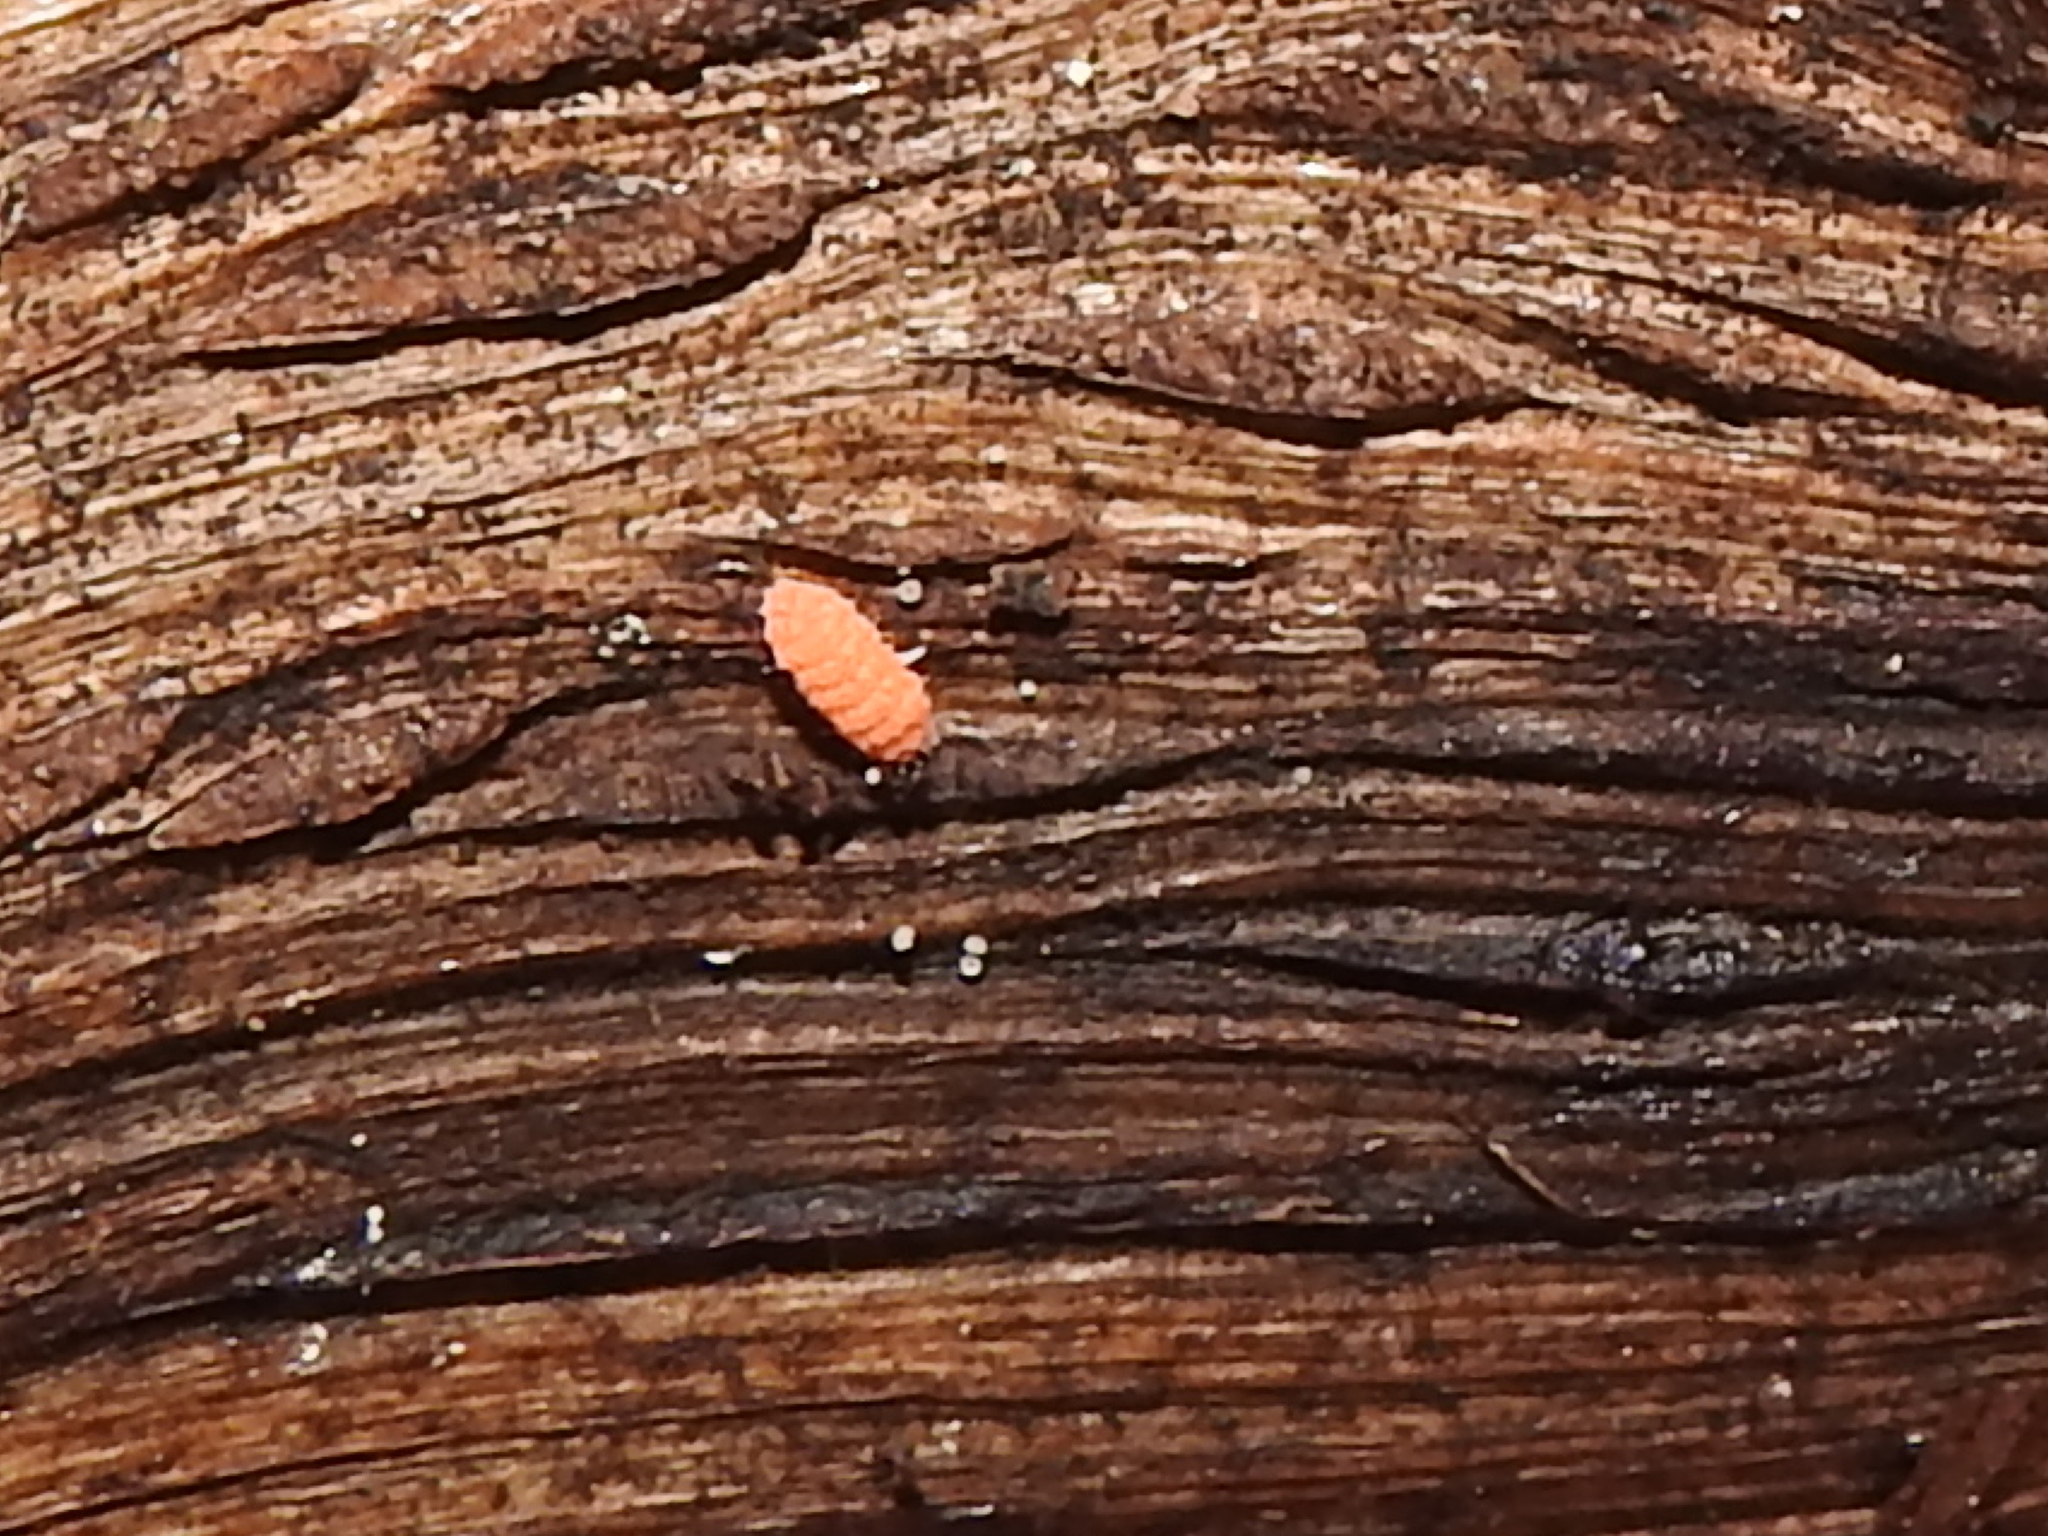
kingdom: Animalia
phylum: Arthropoda
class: Collembola
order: Poduromorpha
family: Neanuridae
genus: Bilobella
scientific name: Bilobella braunerae
